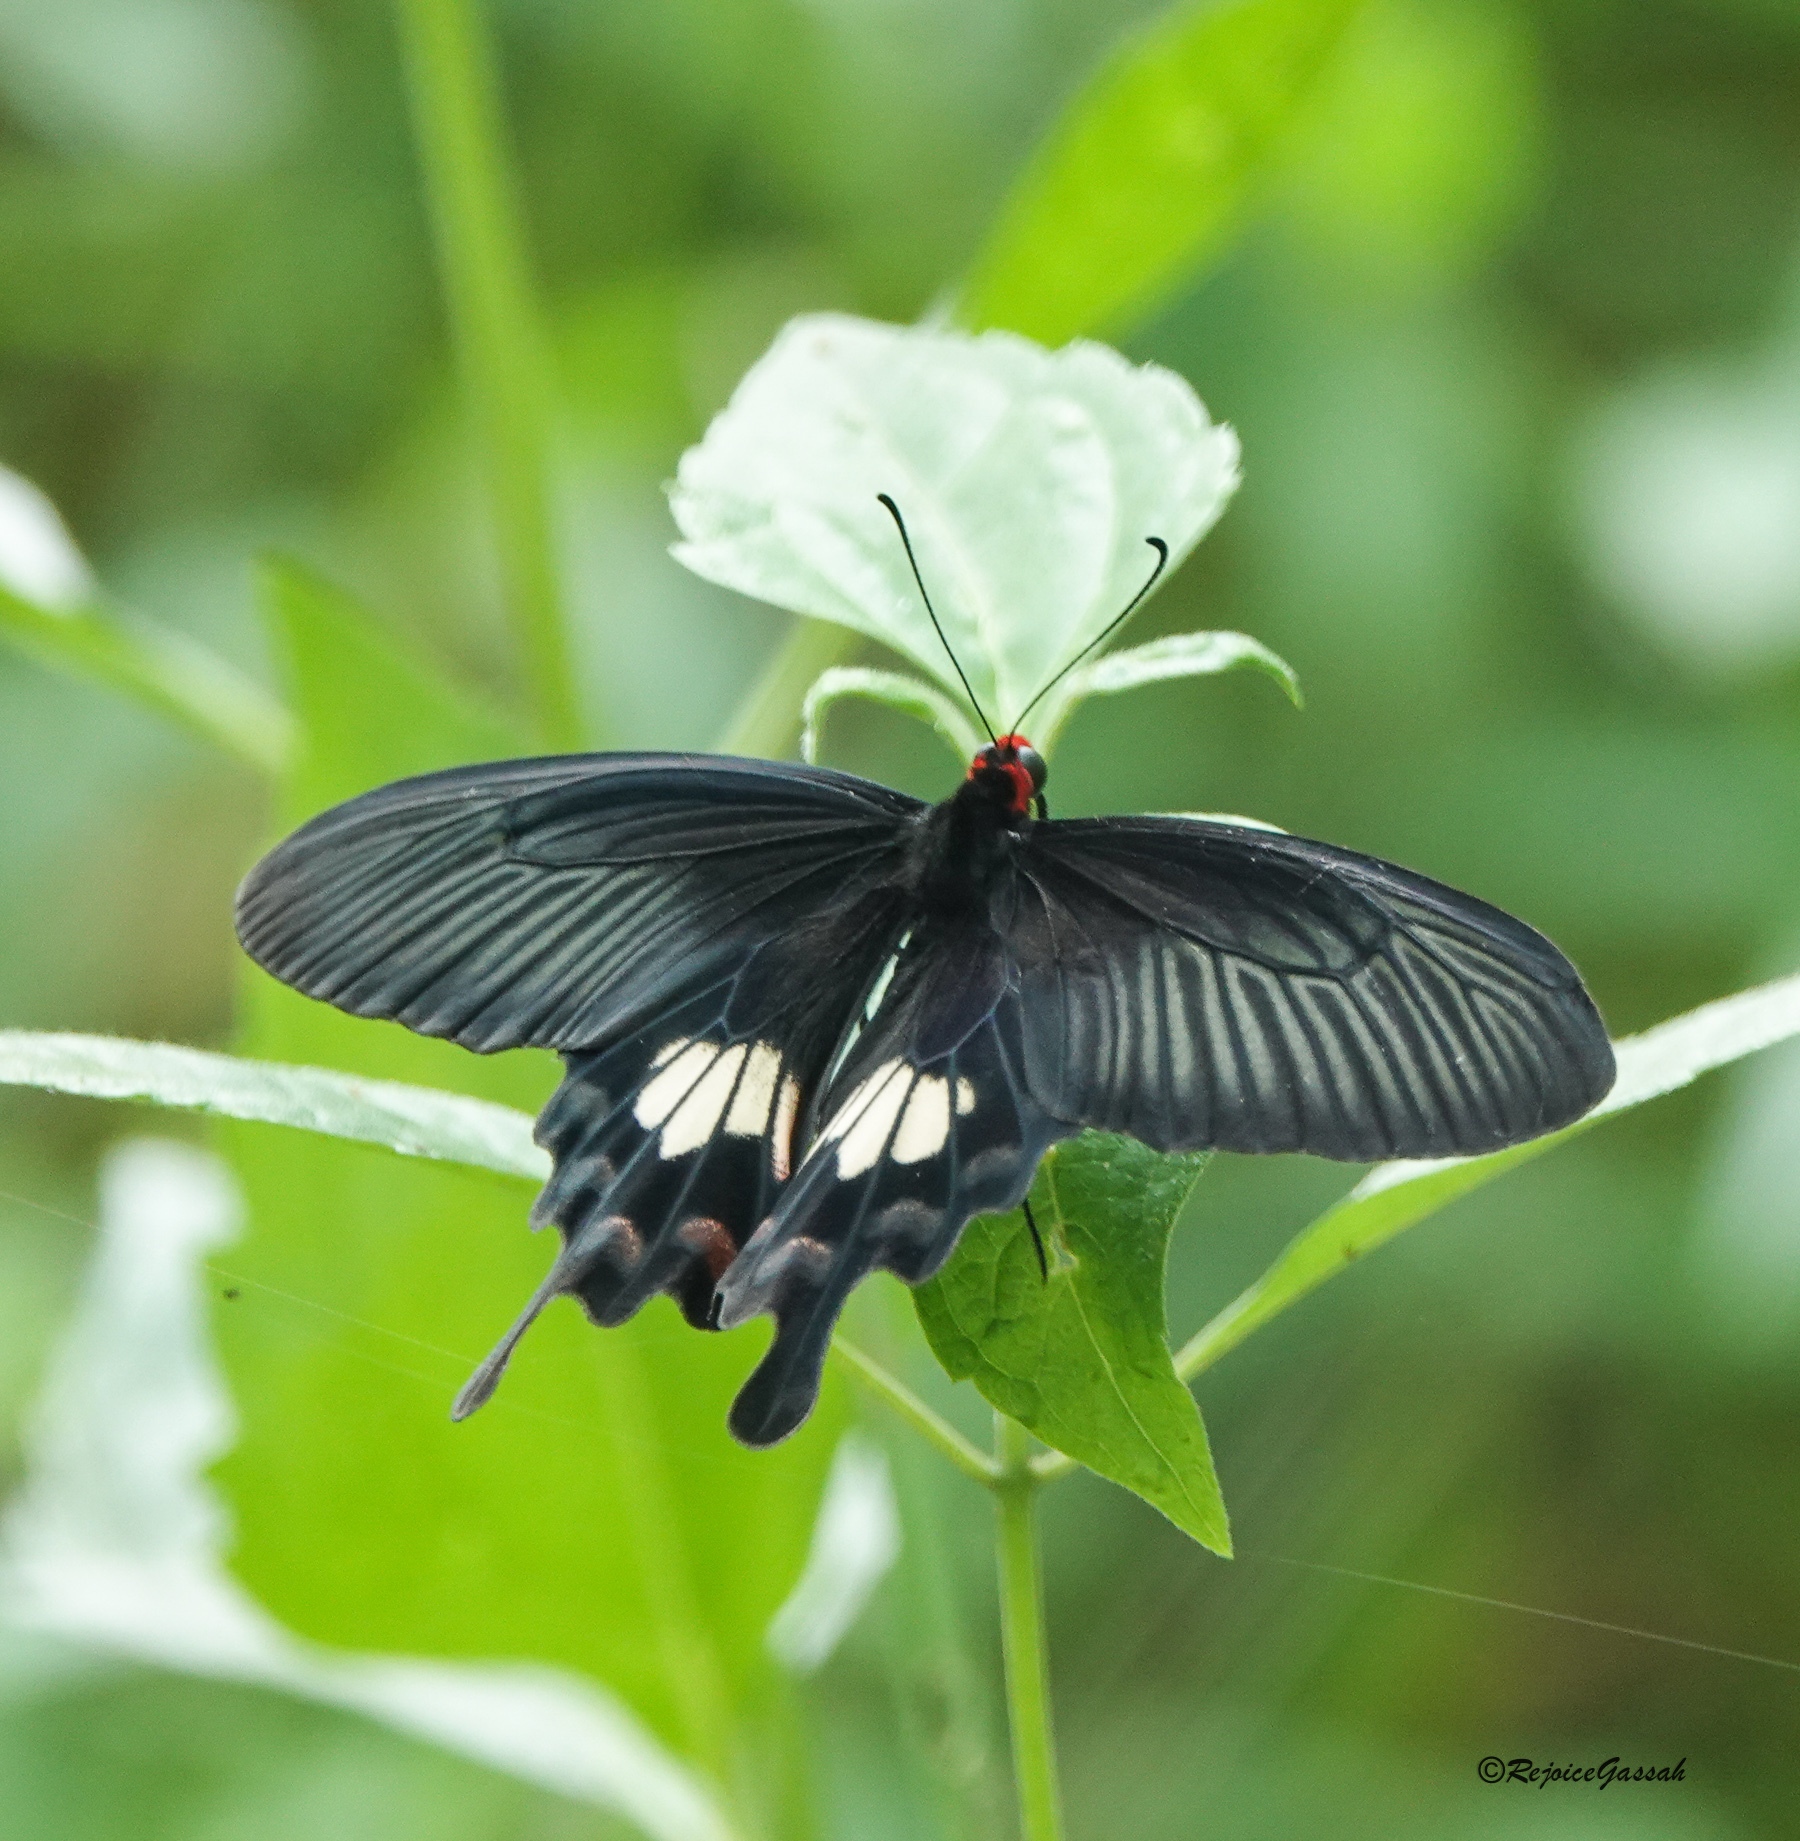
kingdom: Animalia
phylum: Arthropoda
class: Insecta
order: Lepidoptera
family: Papilionidae
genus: Pachliopta
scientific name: Pachliopta aristolochiae
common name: Common rose
